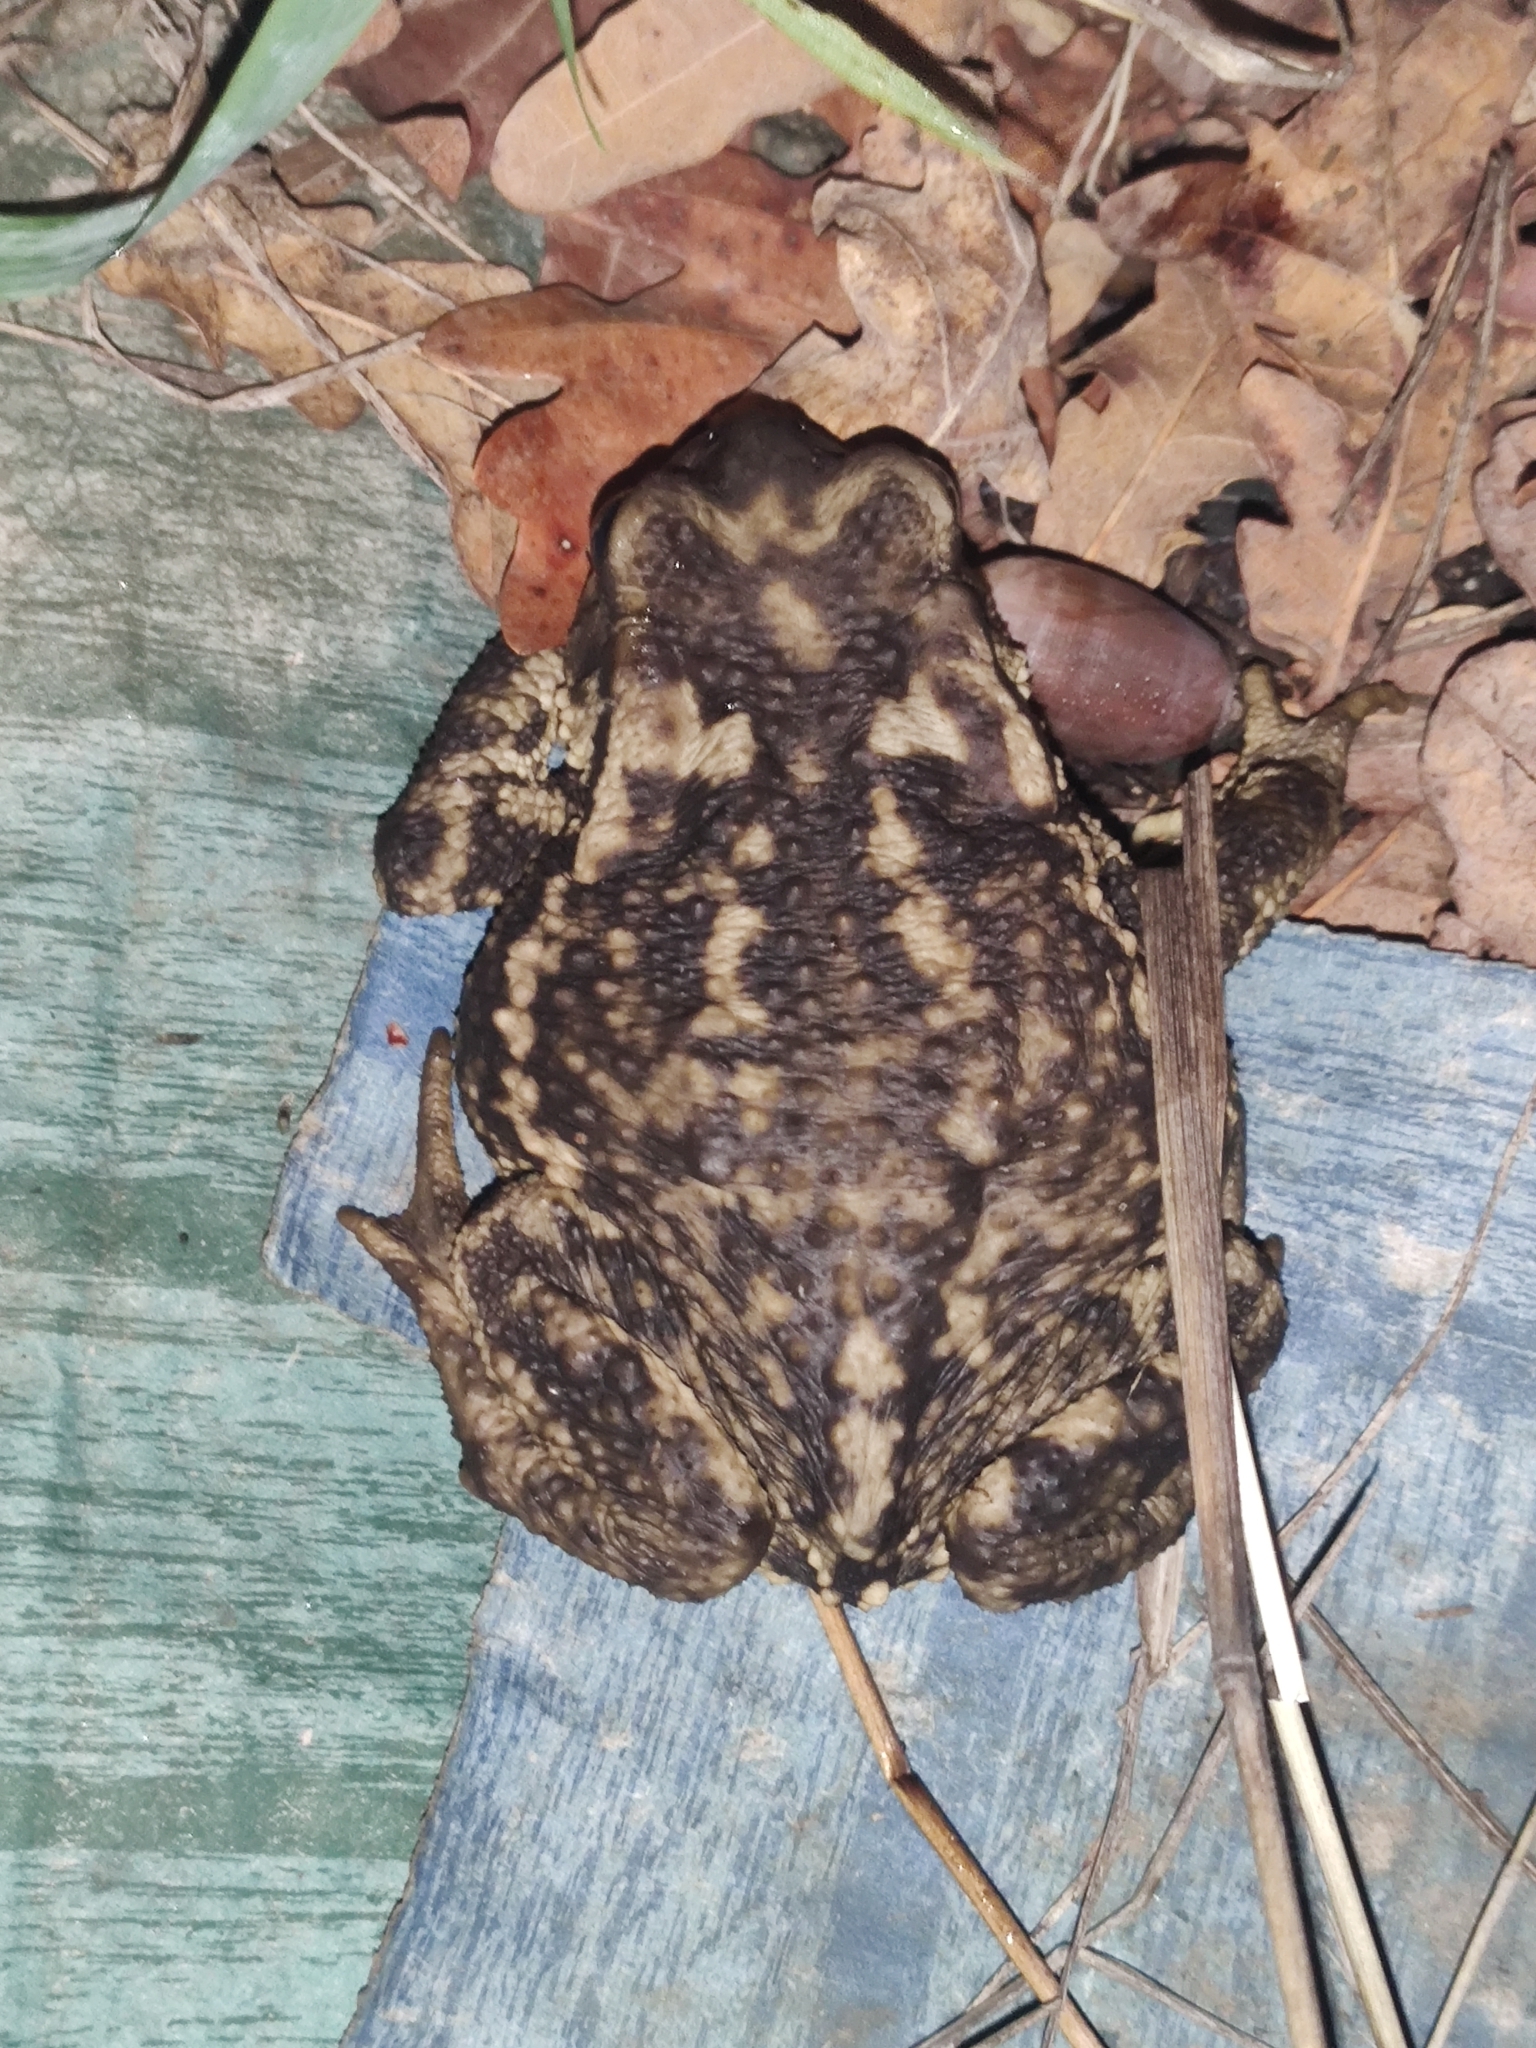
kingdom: Animalia
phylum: Chordata
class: Amphibia
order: Anura
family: Bufonidae
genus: Bufo
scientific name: Bufo spinosus
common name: Western common toad
